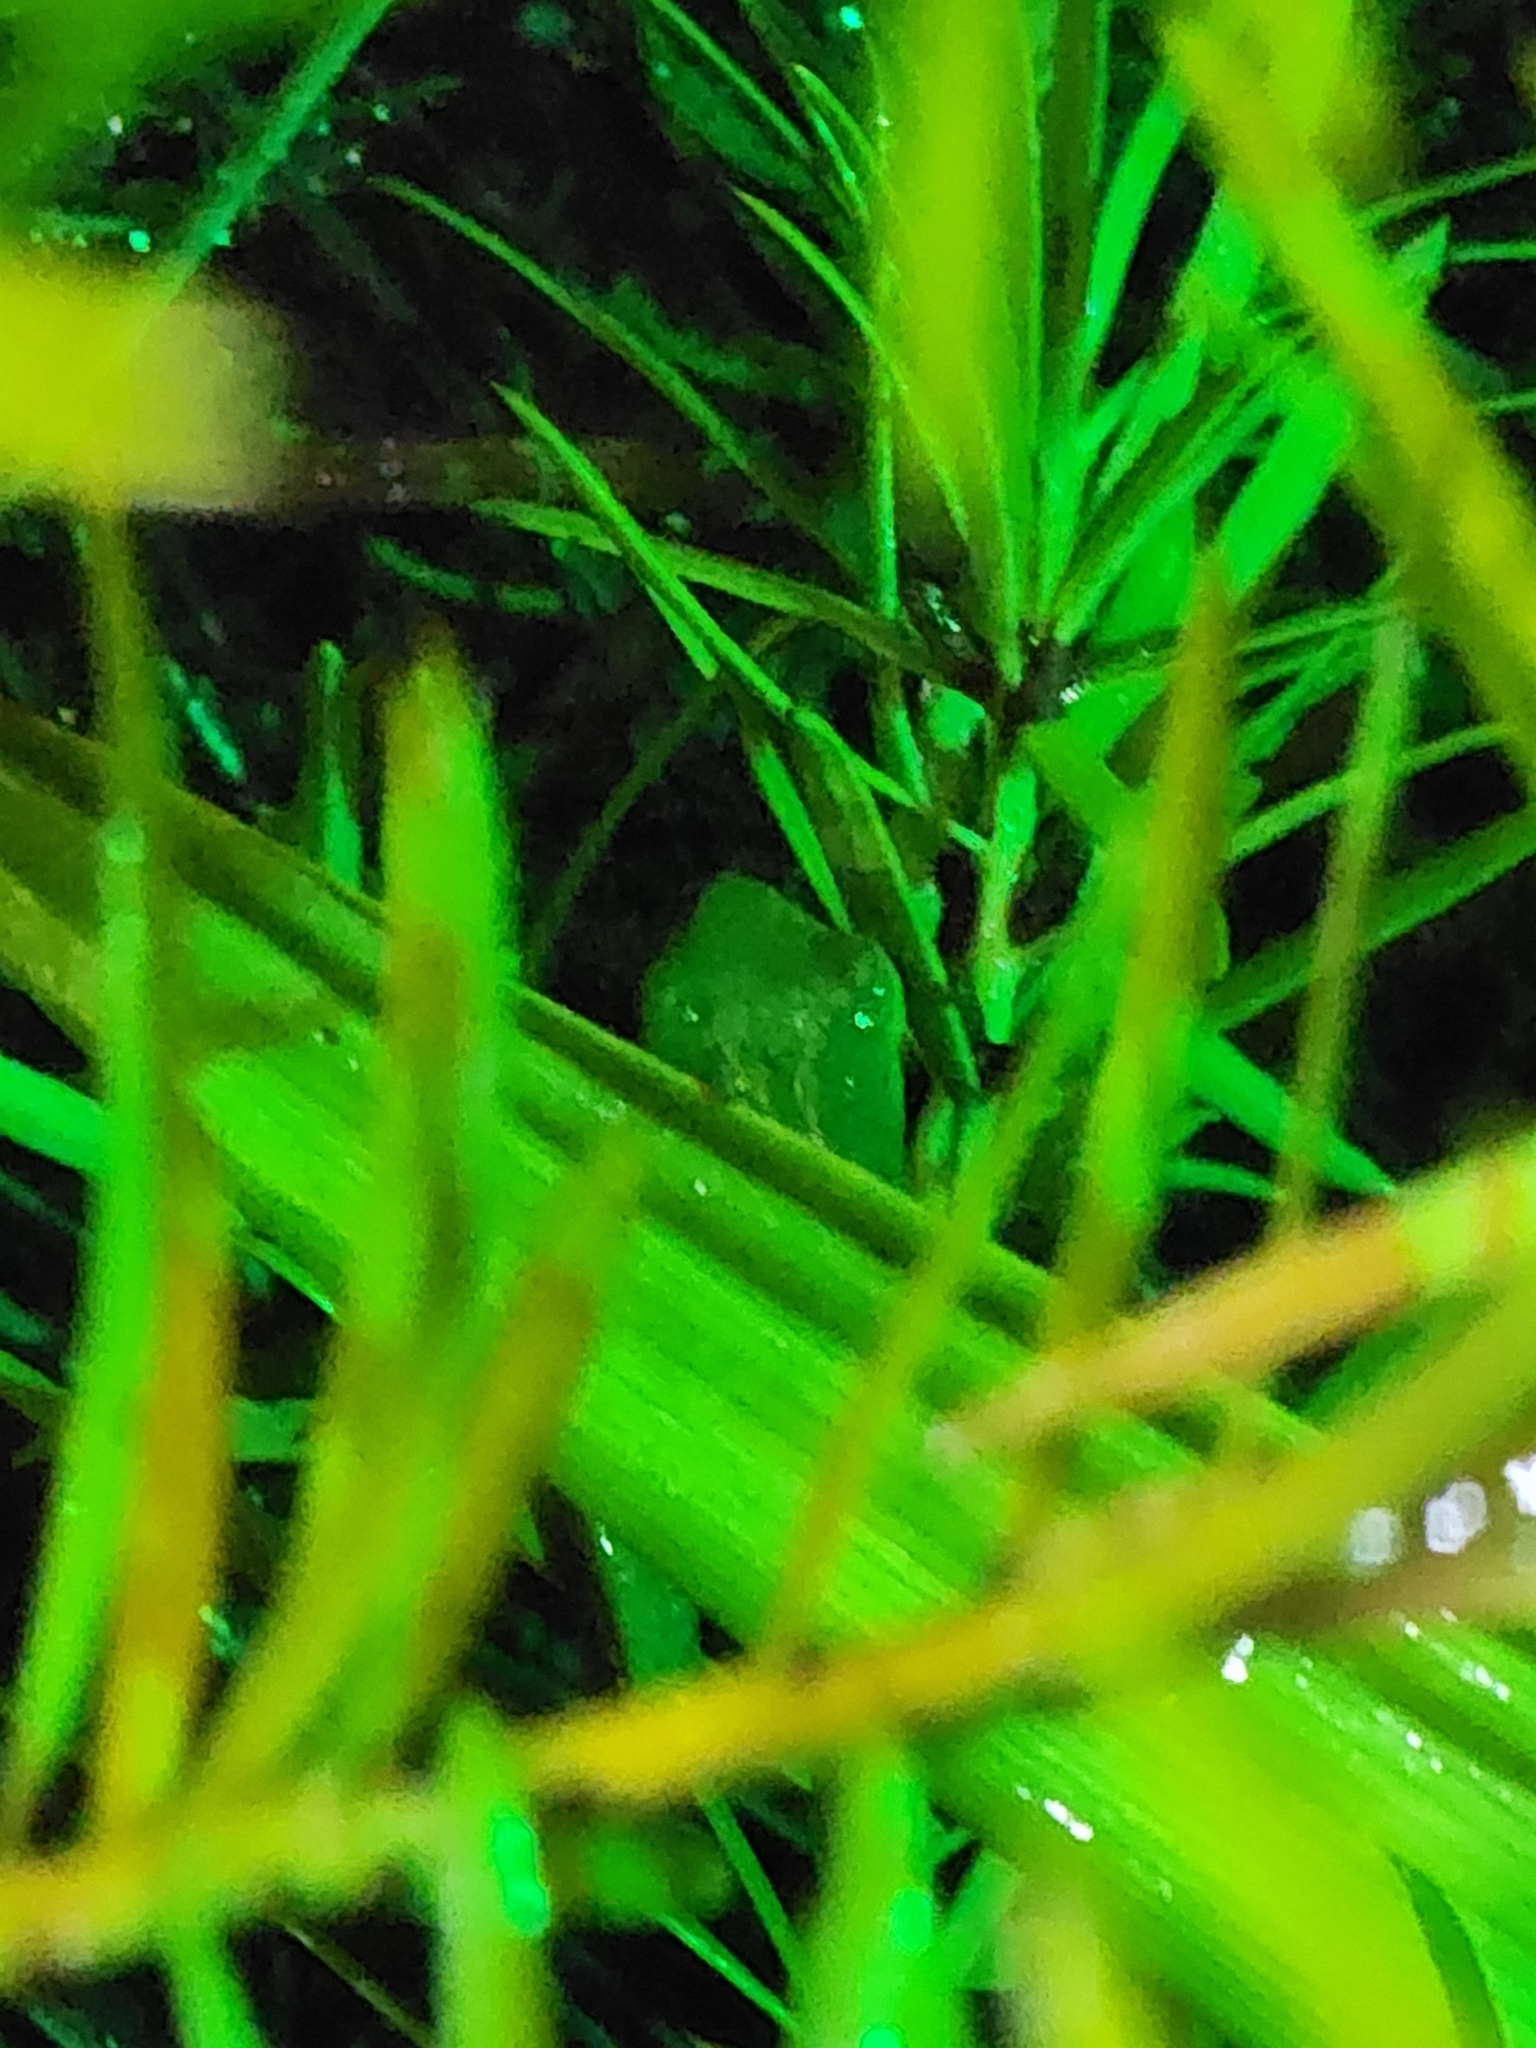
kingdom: Animalia
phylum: Chordata
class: Amphibia
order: Anura
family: Pelodryadidae
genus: Litoria
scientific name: Litoria fallax
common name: Eastern dwarf treefrog
